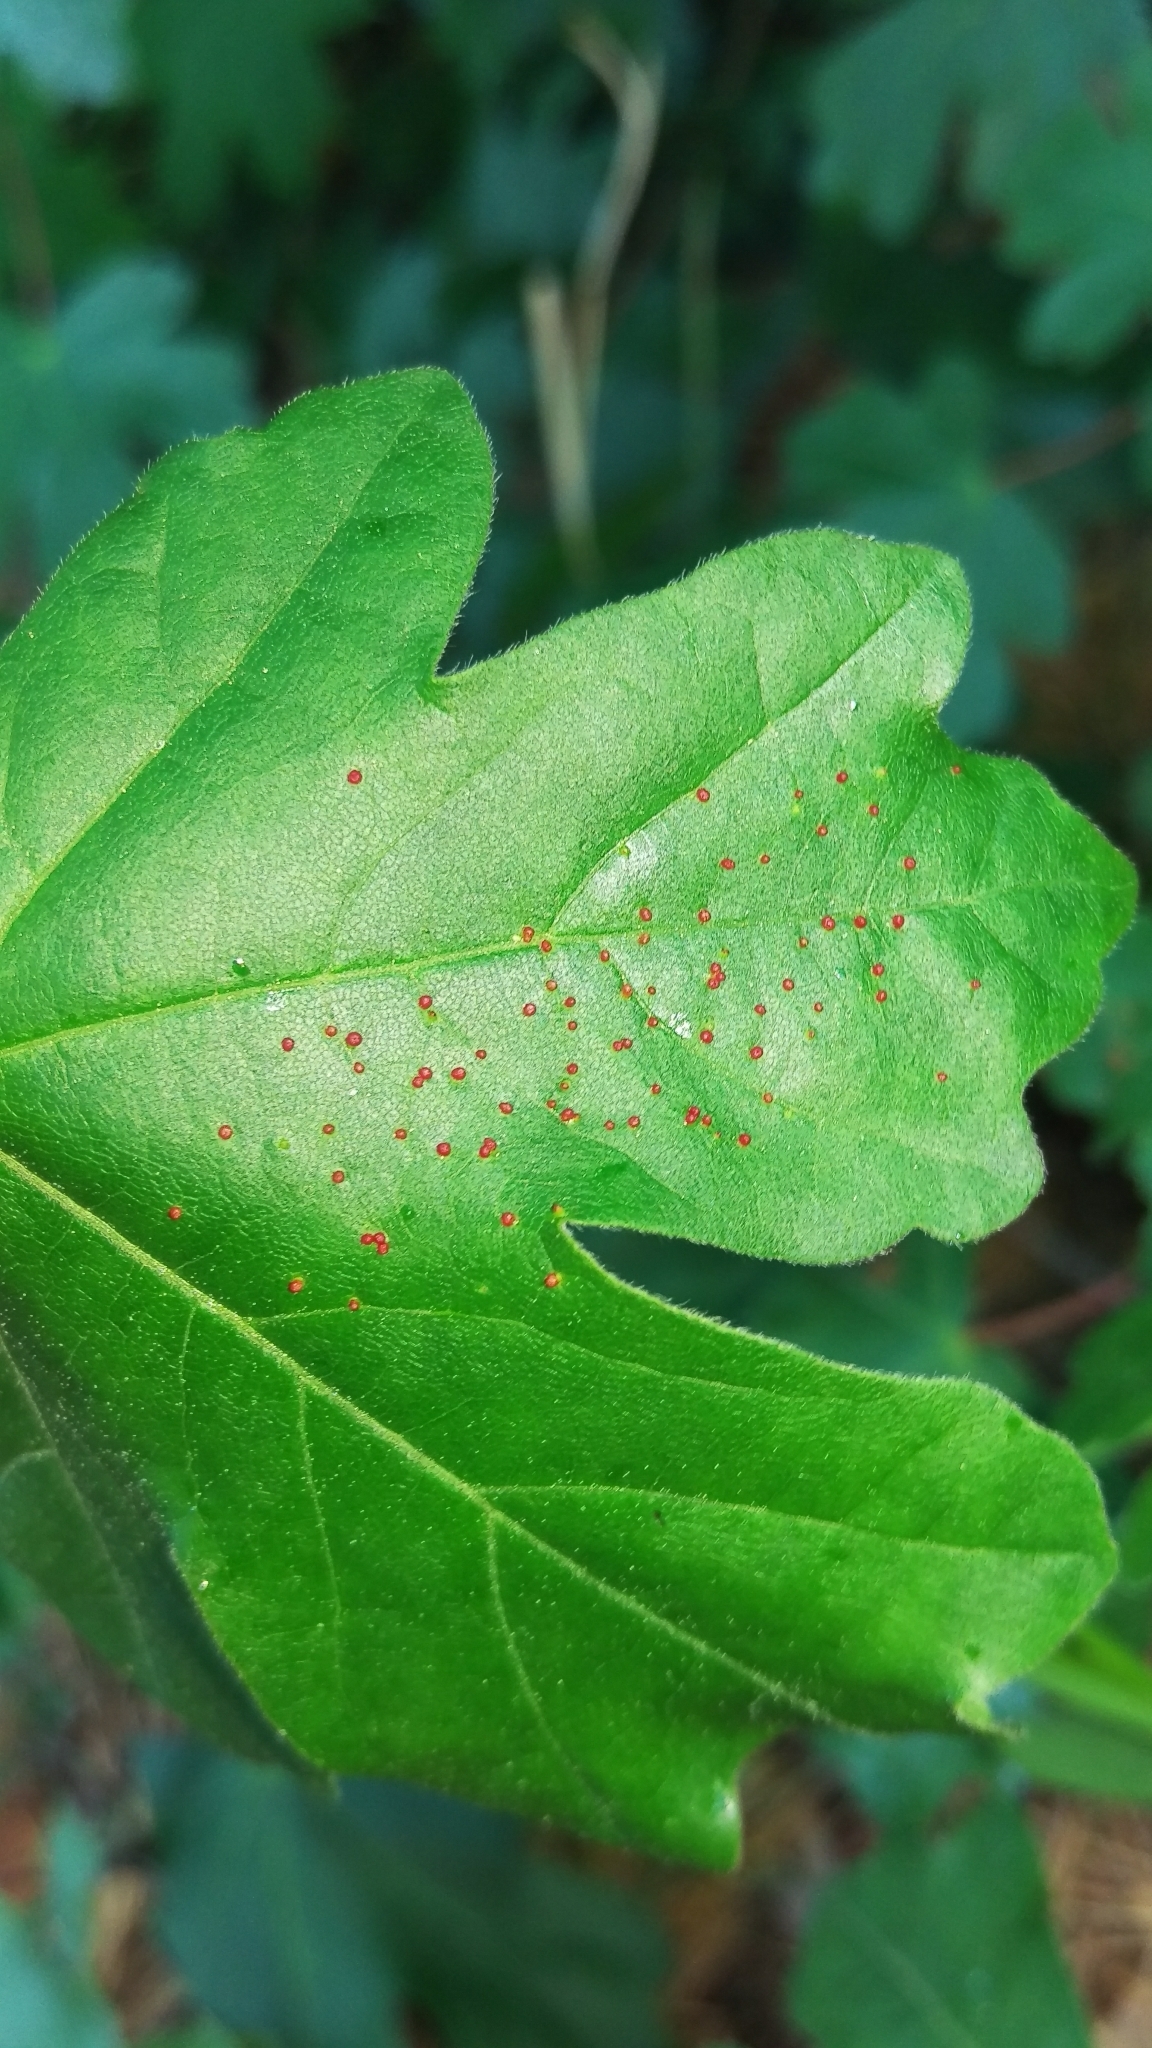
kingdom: Animalia
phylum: Arthropoda
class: Arachnida
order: Trombidiformes
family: Eriophyidae
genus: Aceria
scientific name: Aceria myriadeum
